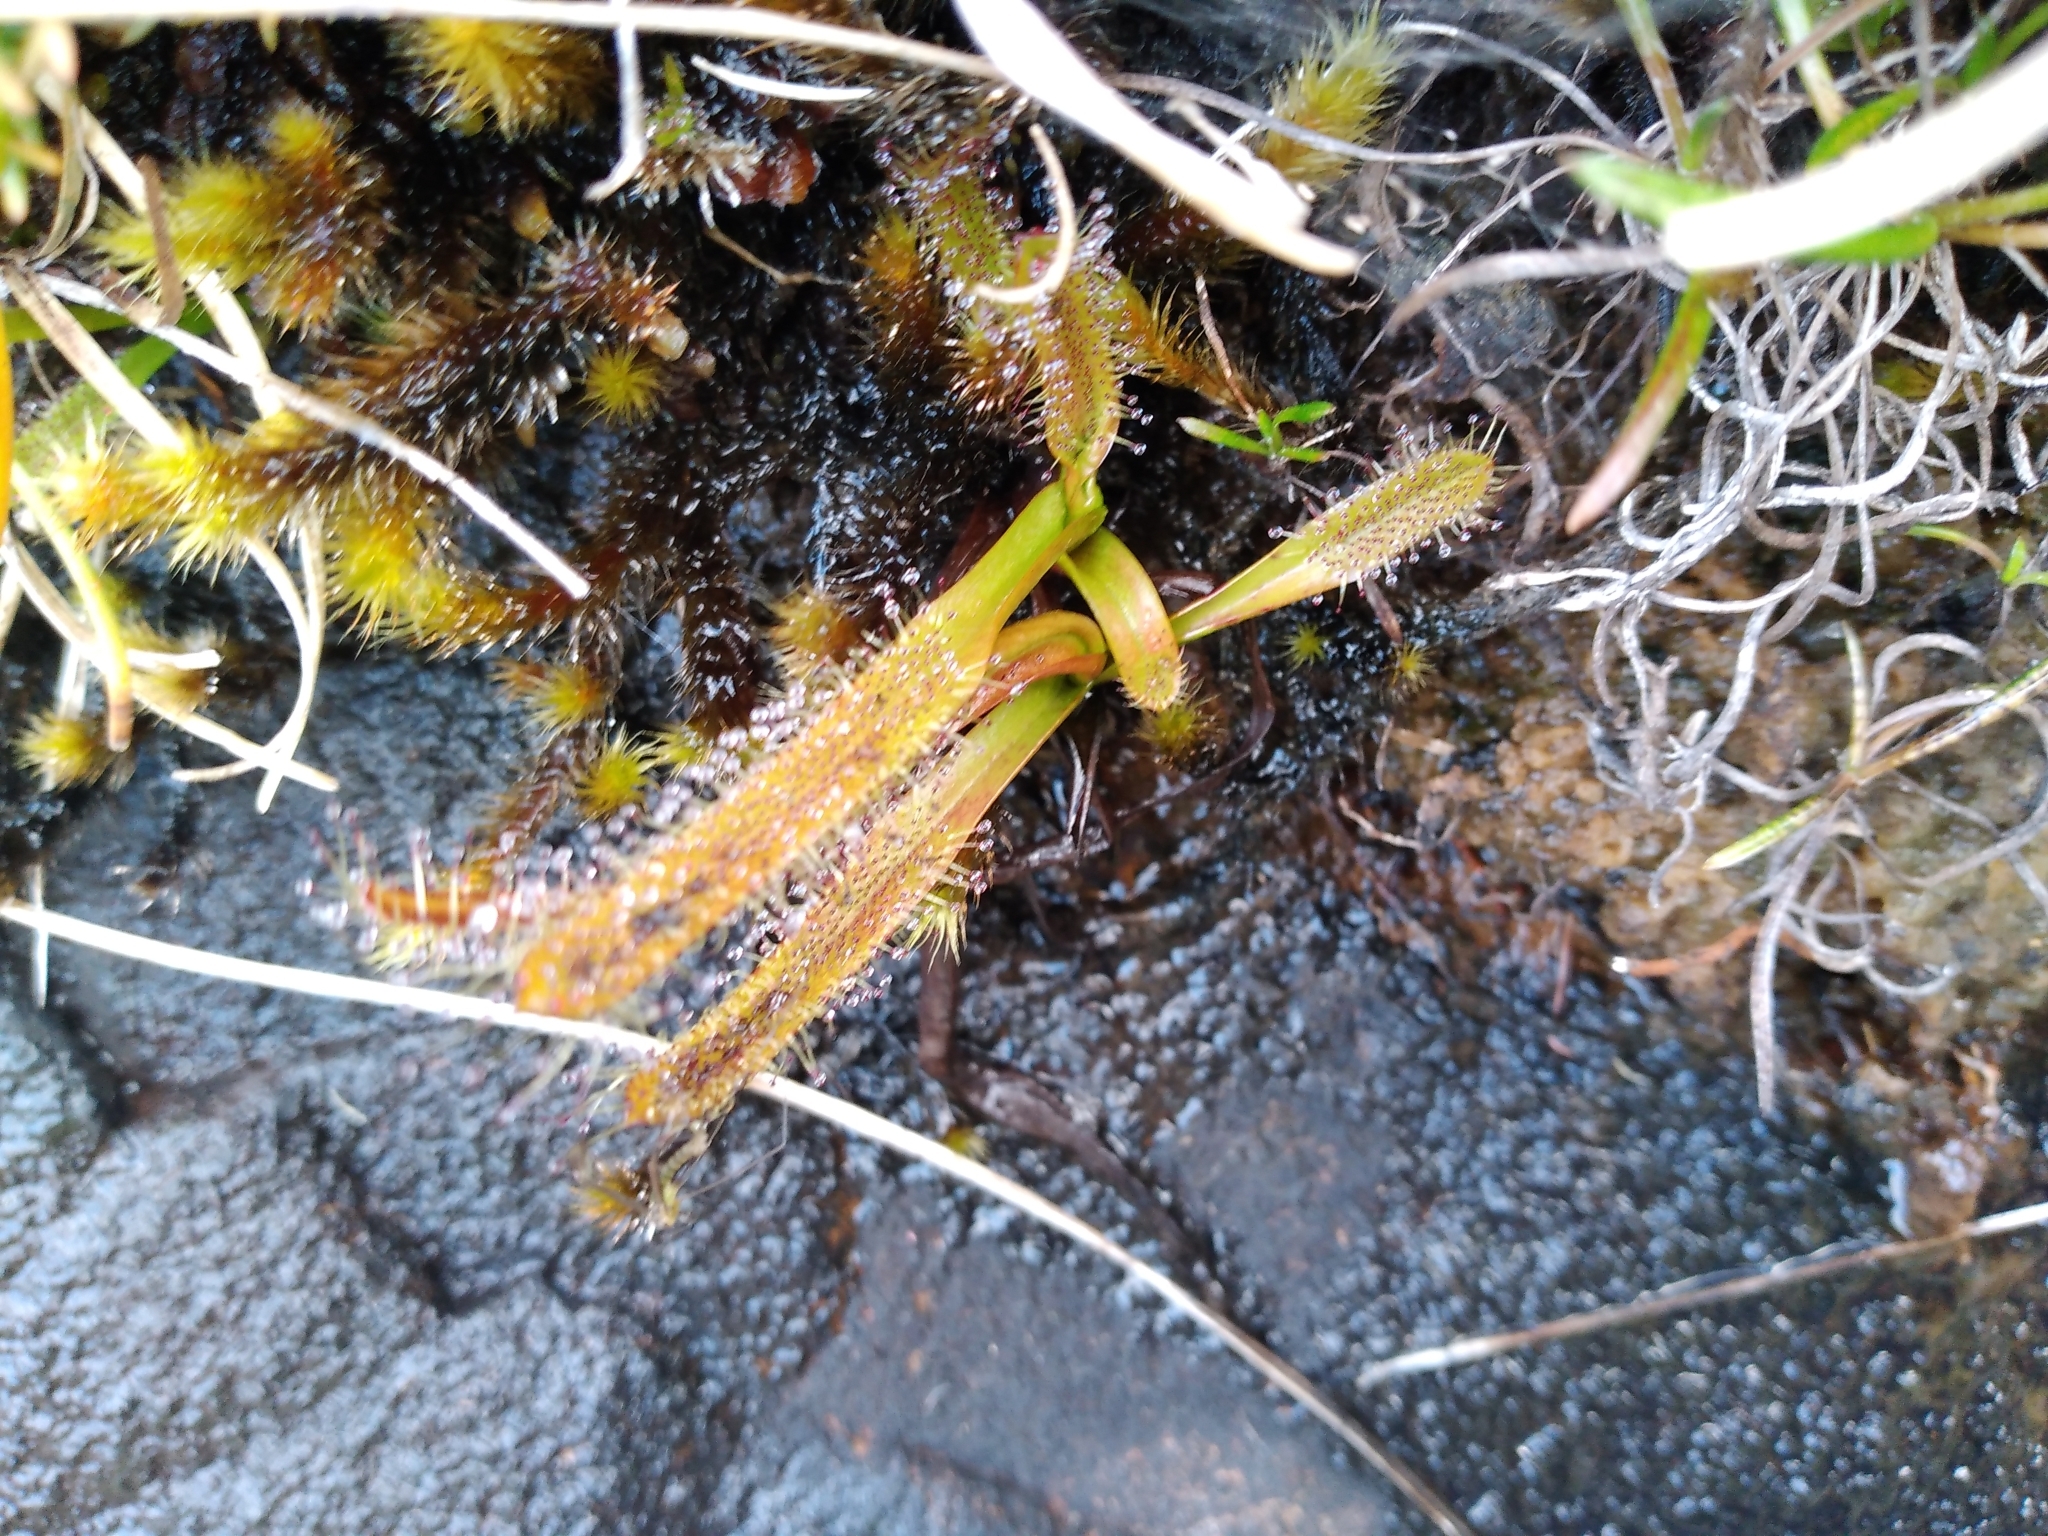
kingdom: Plantae
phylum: Tracheophyta
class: Magnoliopsida
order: Caryophyllales
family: Droseraceae
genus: Drosera
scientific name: Drosera arcturi
